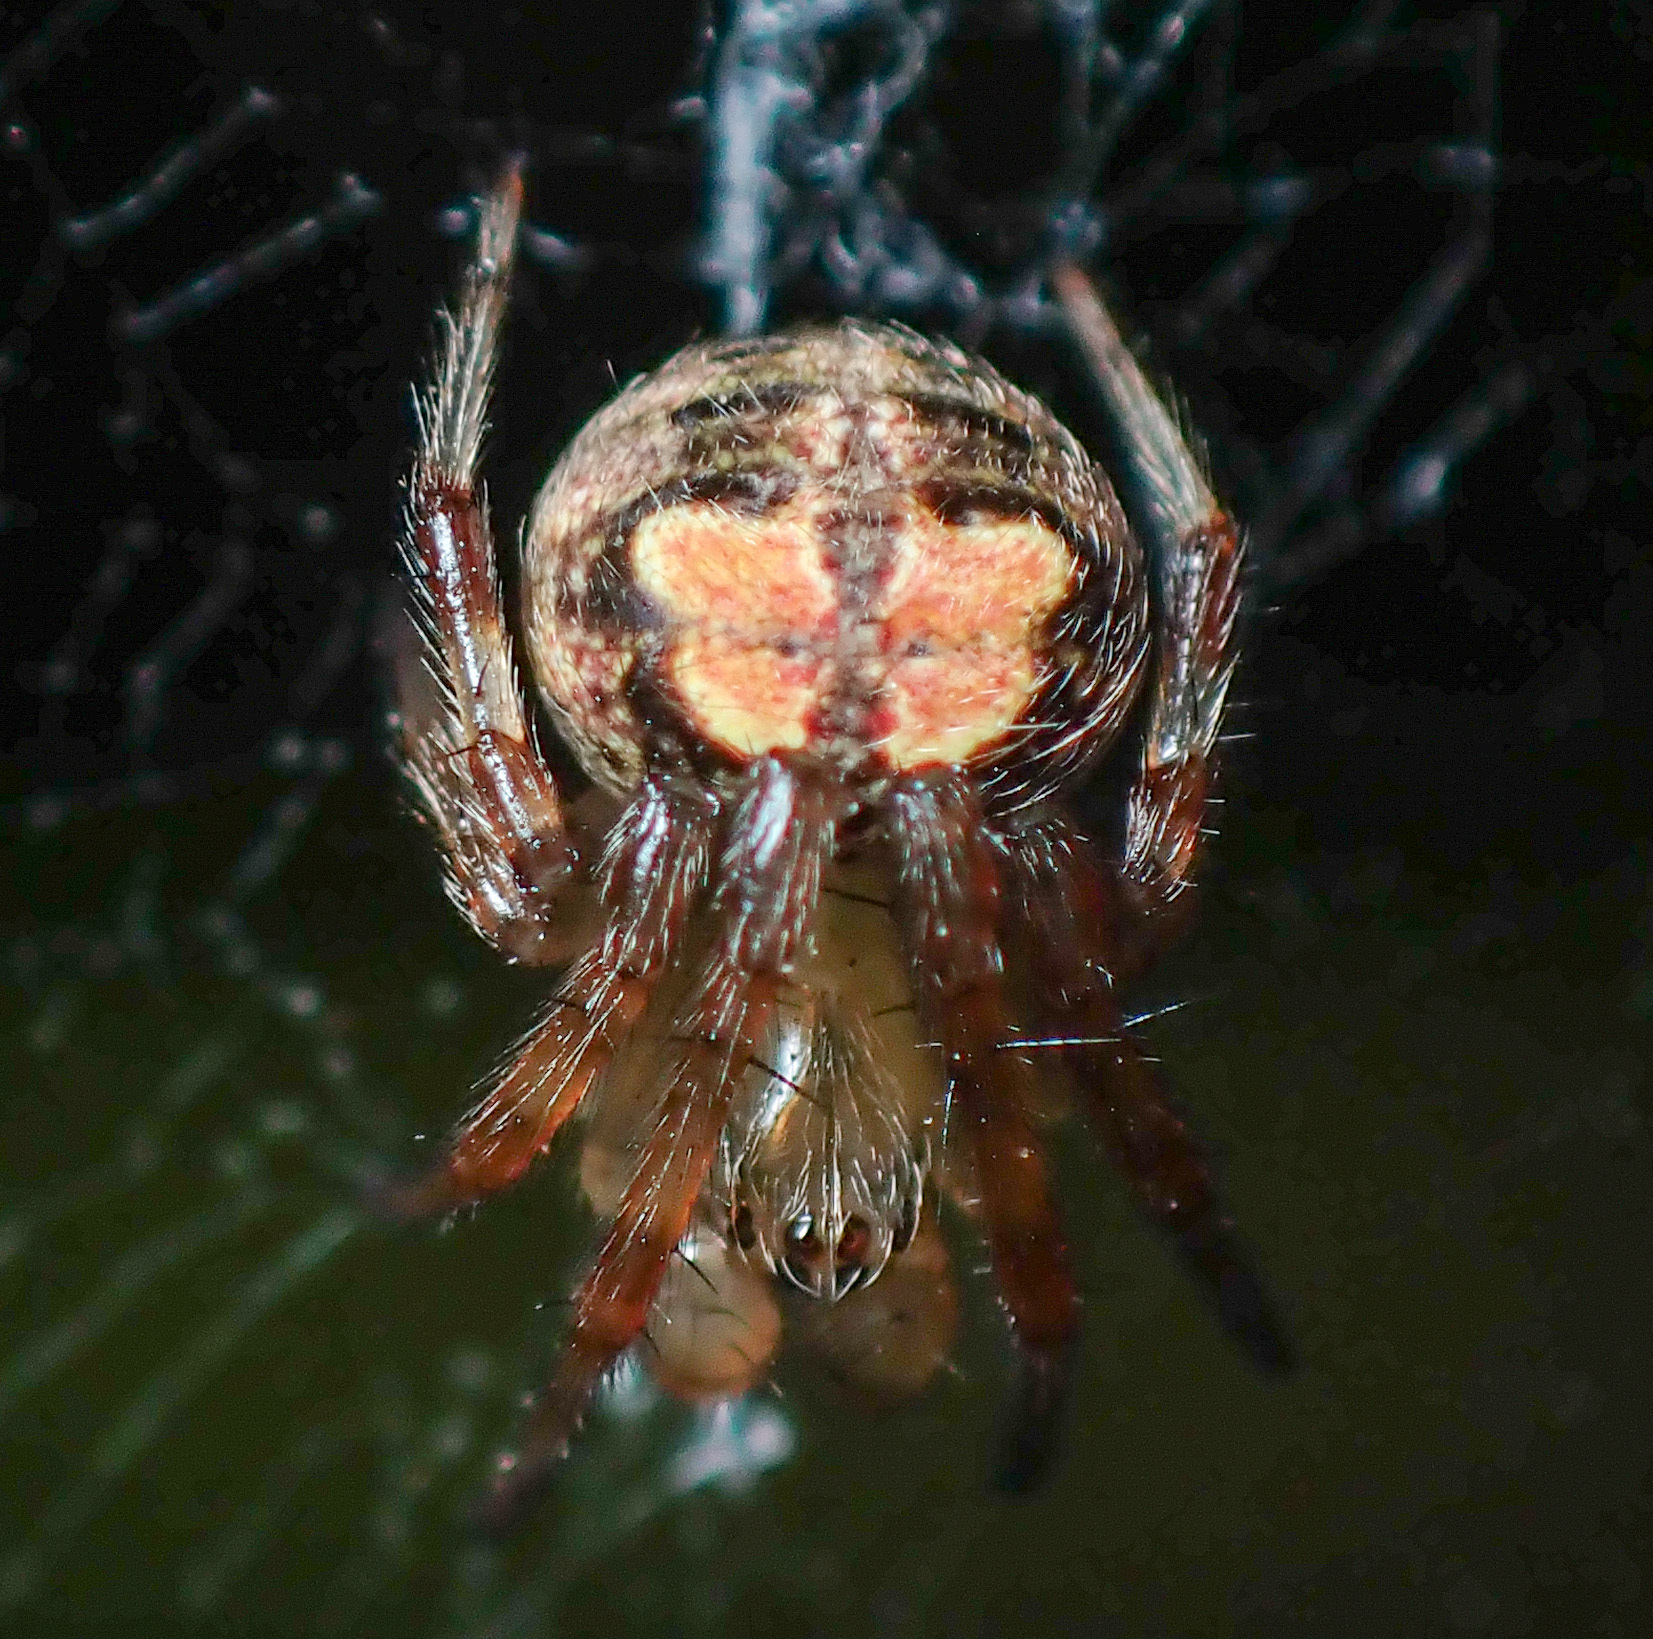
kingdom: Animalia
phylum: Arthropoda
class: Arachnida
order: Araneae
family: Araneidae
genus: Araneus
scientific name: Araneus pegnia
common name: Orb weavers
